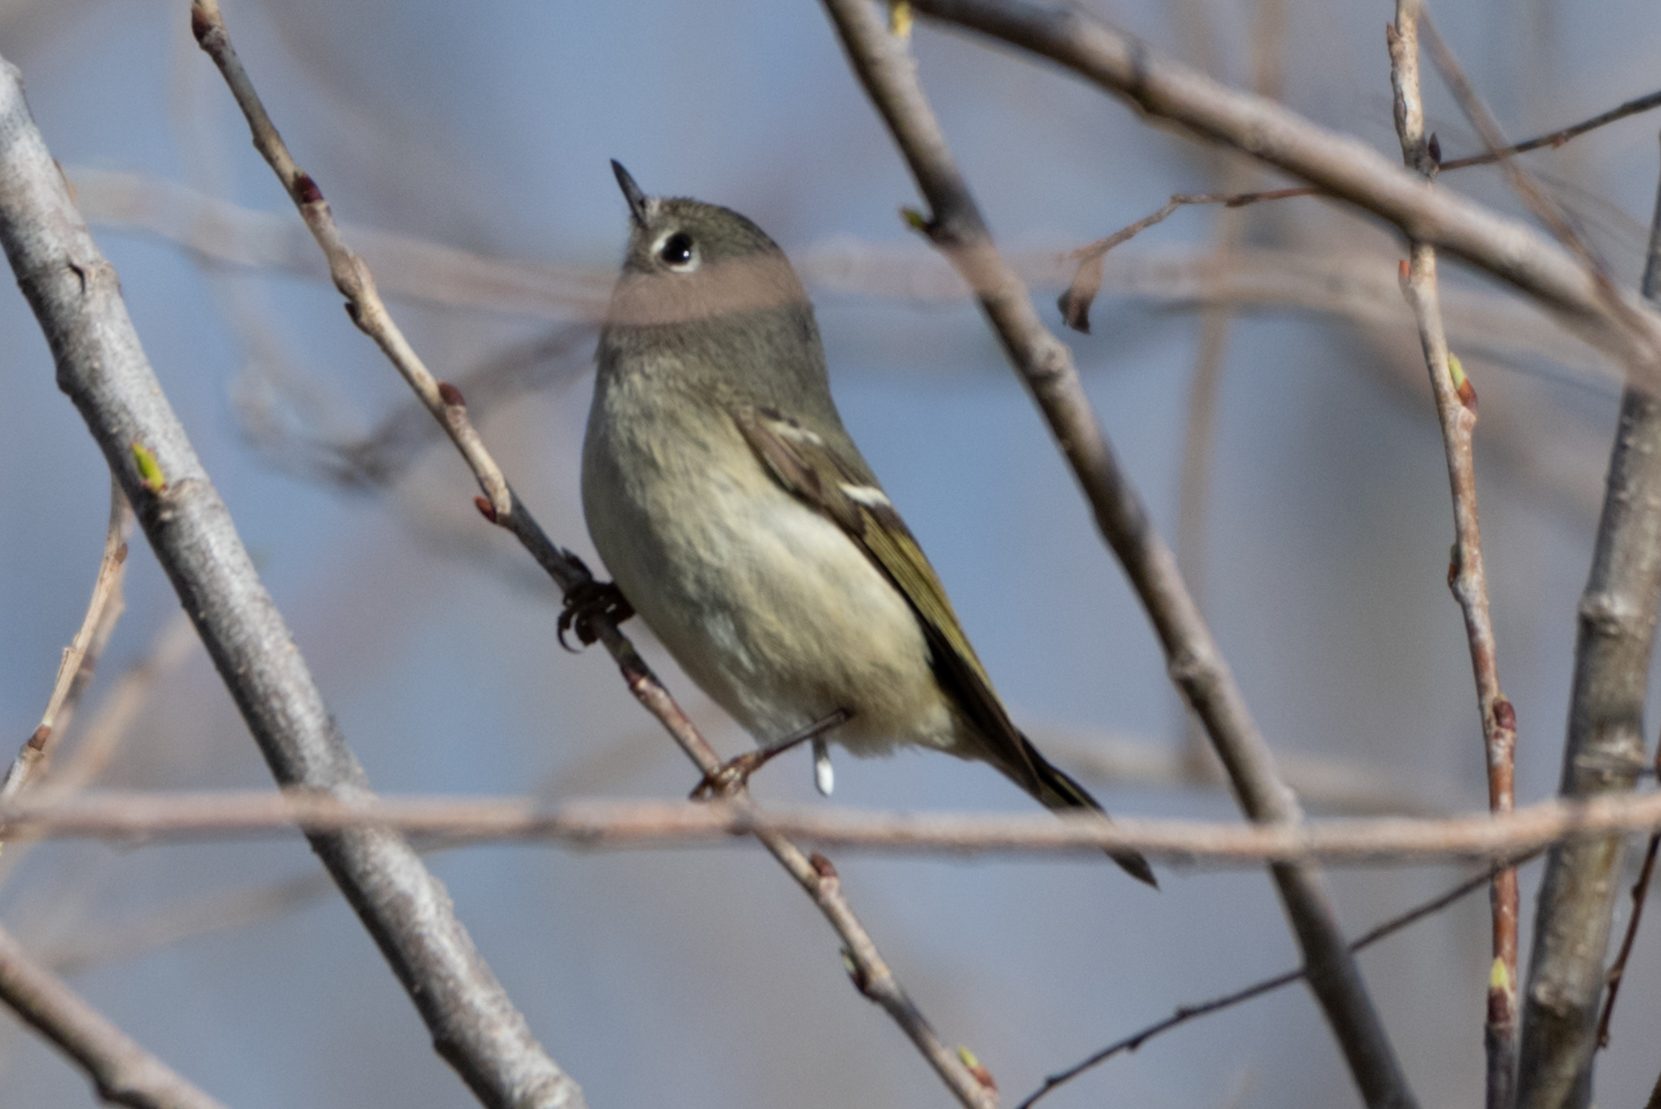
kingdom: Animalia
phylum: Chordata
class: Aves
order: Passeriformes
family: Regulidae
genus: Regulus
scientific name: Regulus calendula
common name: Ruby-crowned kinglet
